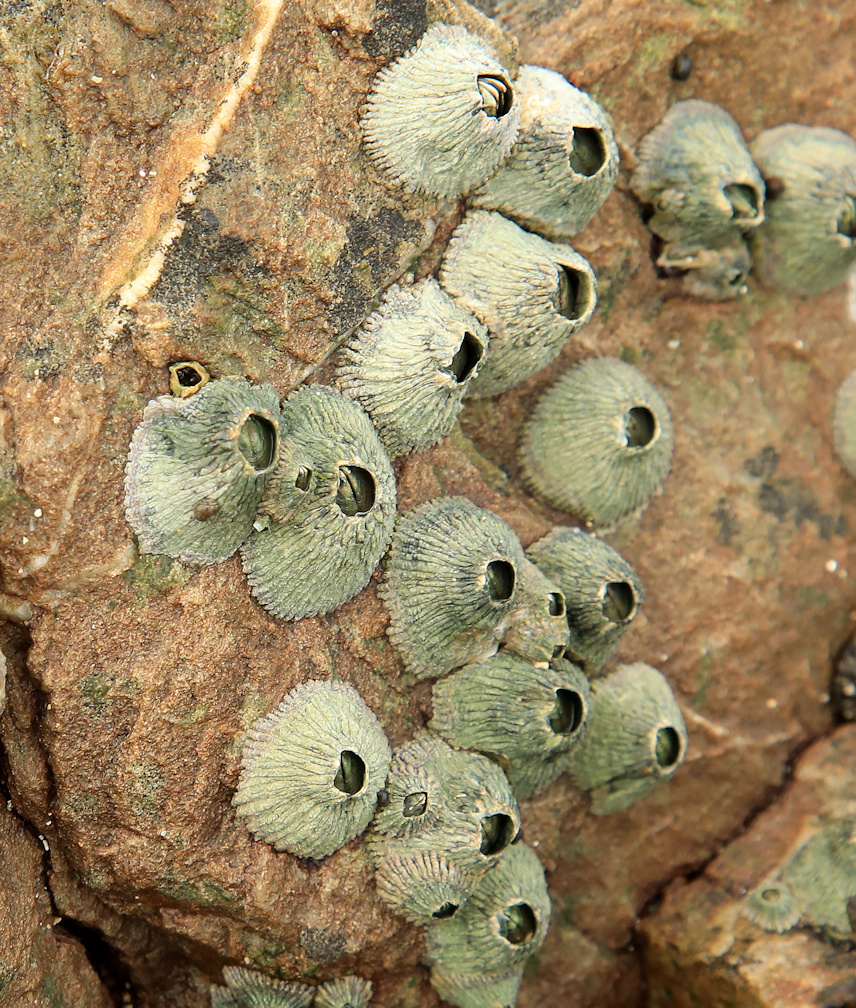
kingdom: Animalia
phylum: Arthropoda
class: Maxillopoda
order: Sessilia
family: Tetraclitidae
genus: Tetraclita
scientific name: Tetraclita serrata
